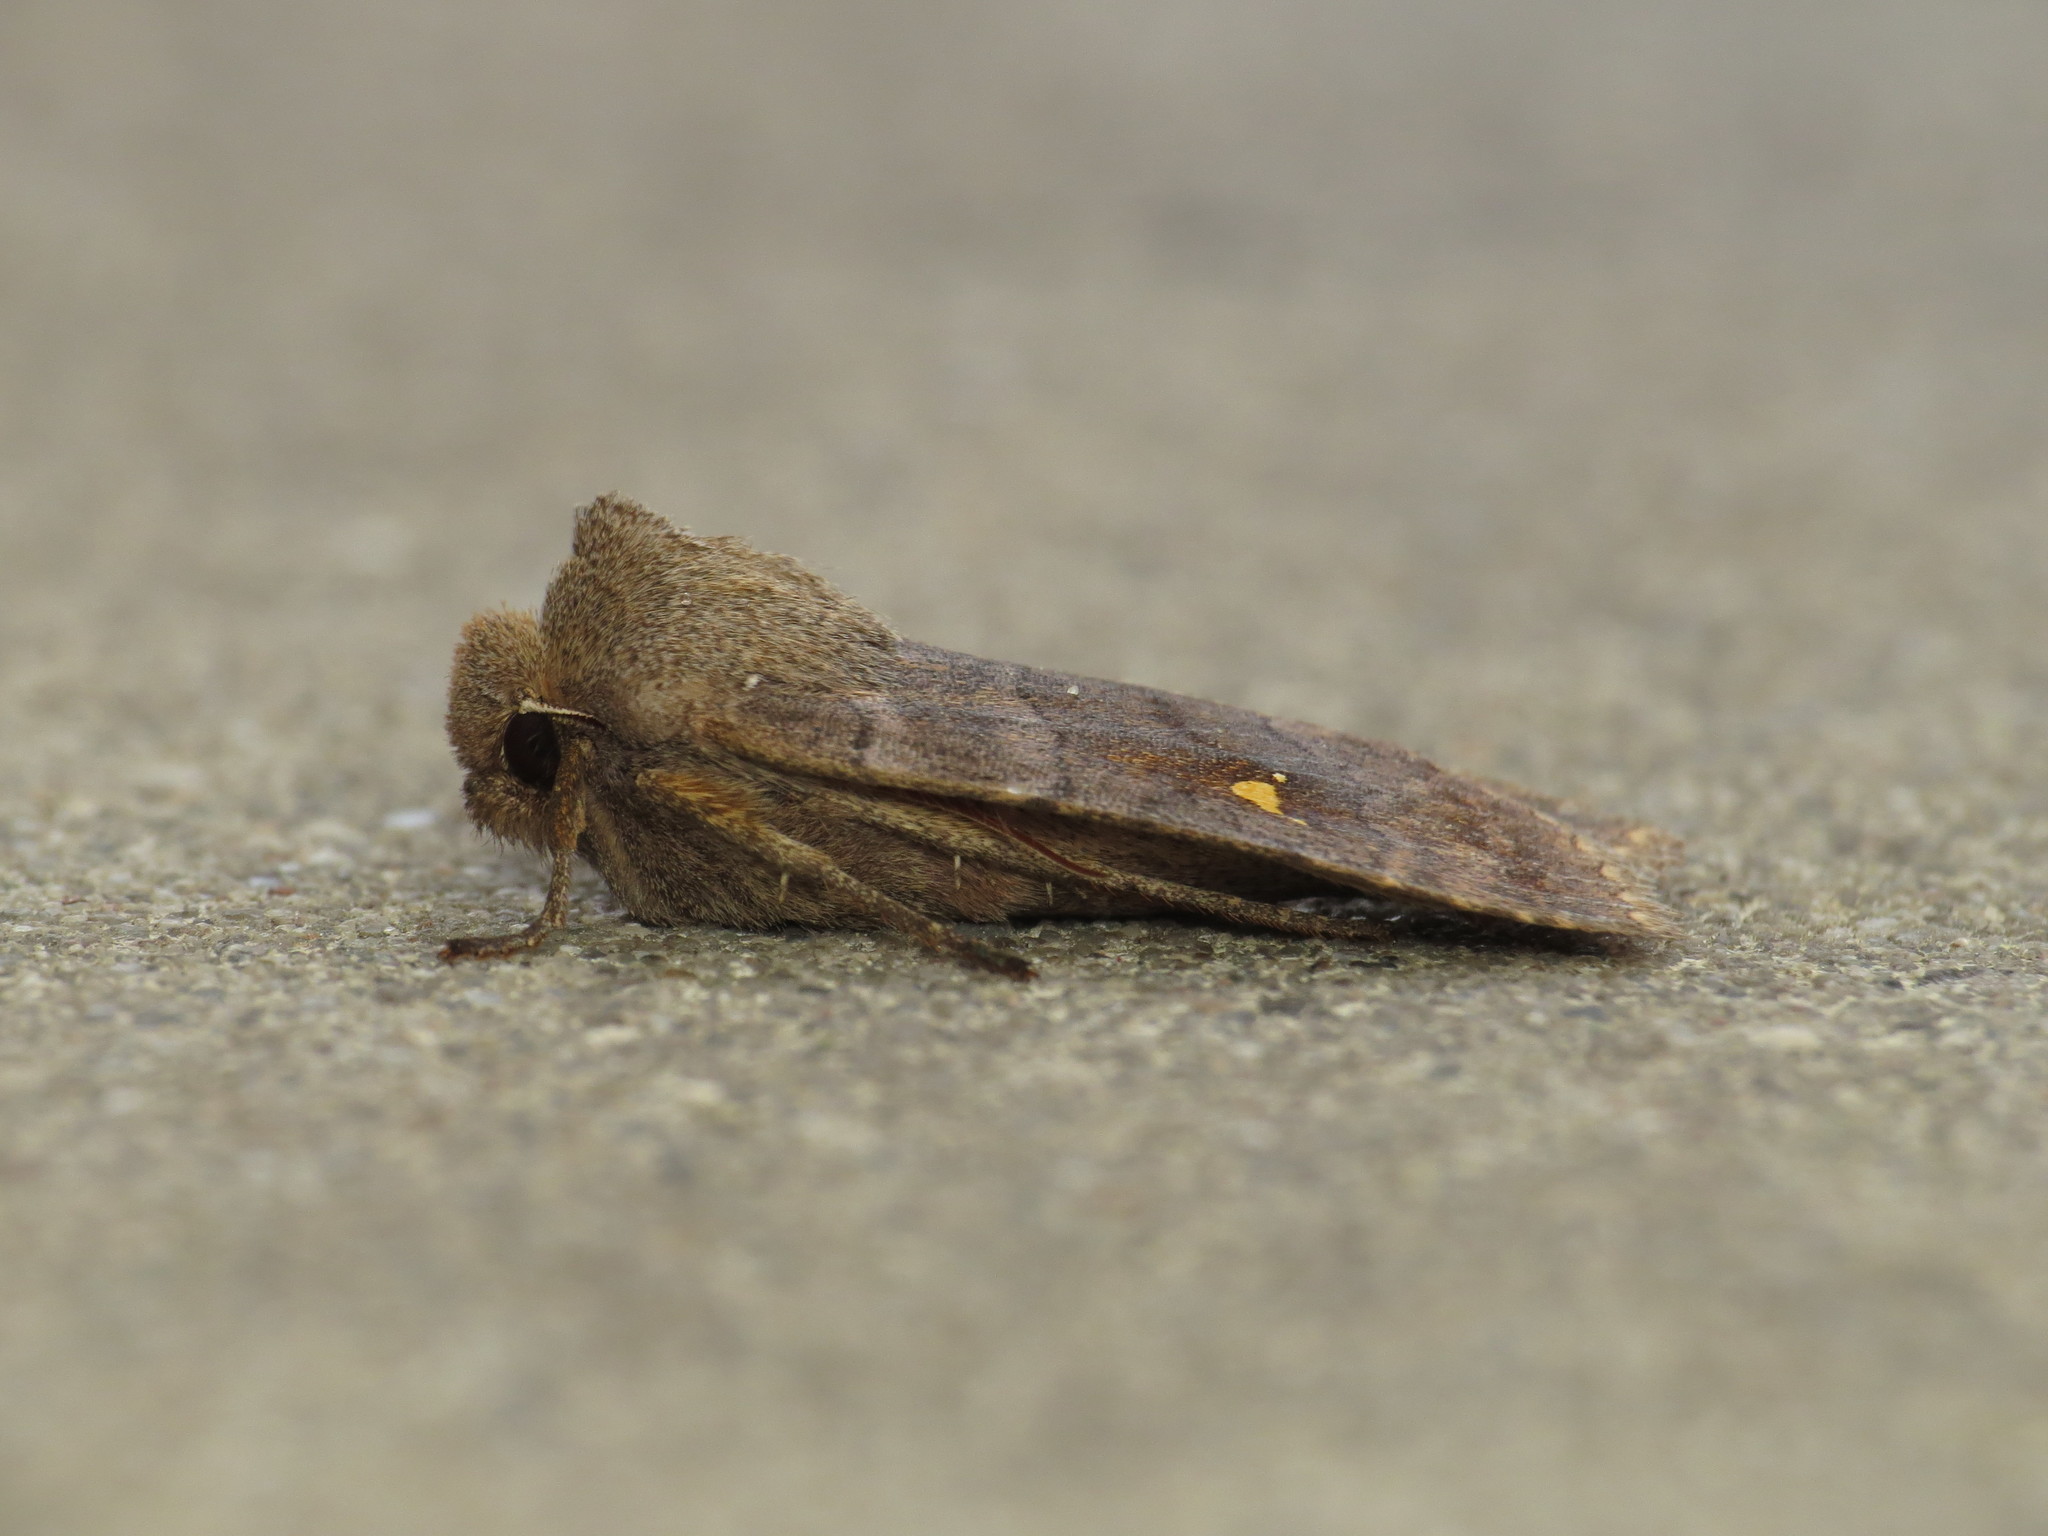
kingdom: Animalia
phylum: Arthropoda
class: Insecta
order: Lepidoptera
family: Noctuidae
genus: Eupsilia
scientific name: Eupsilia transversa
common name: Satellite
